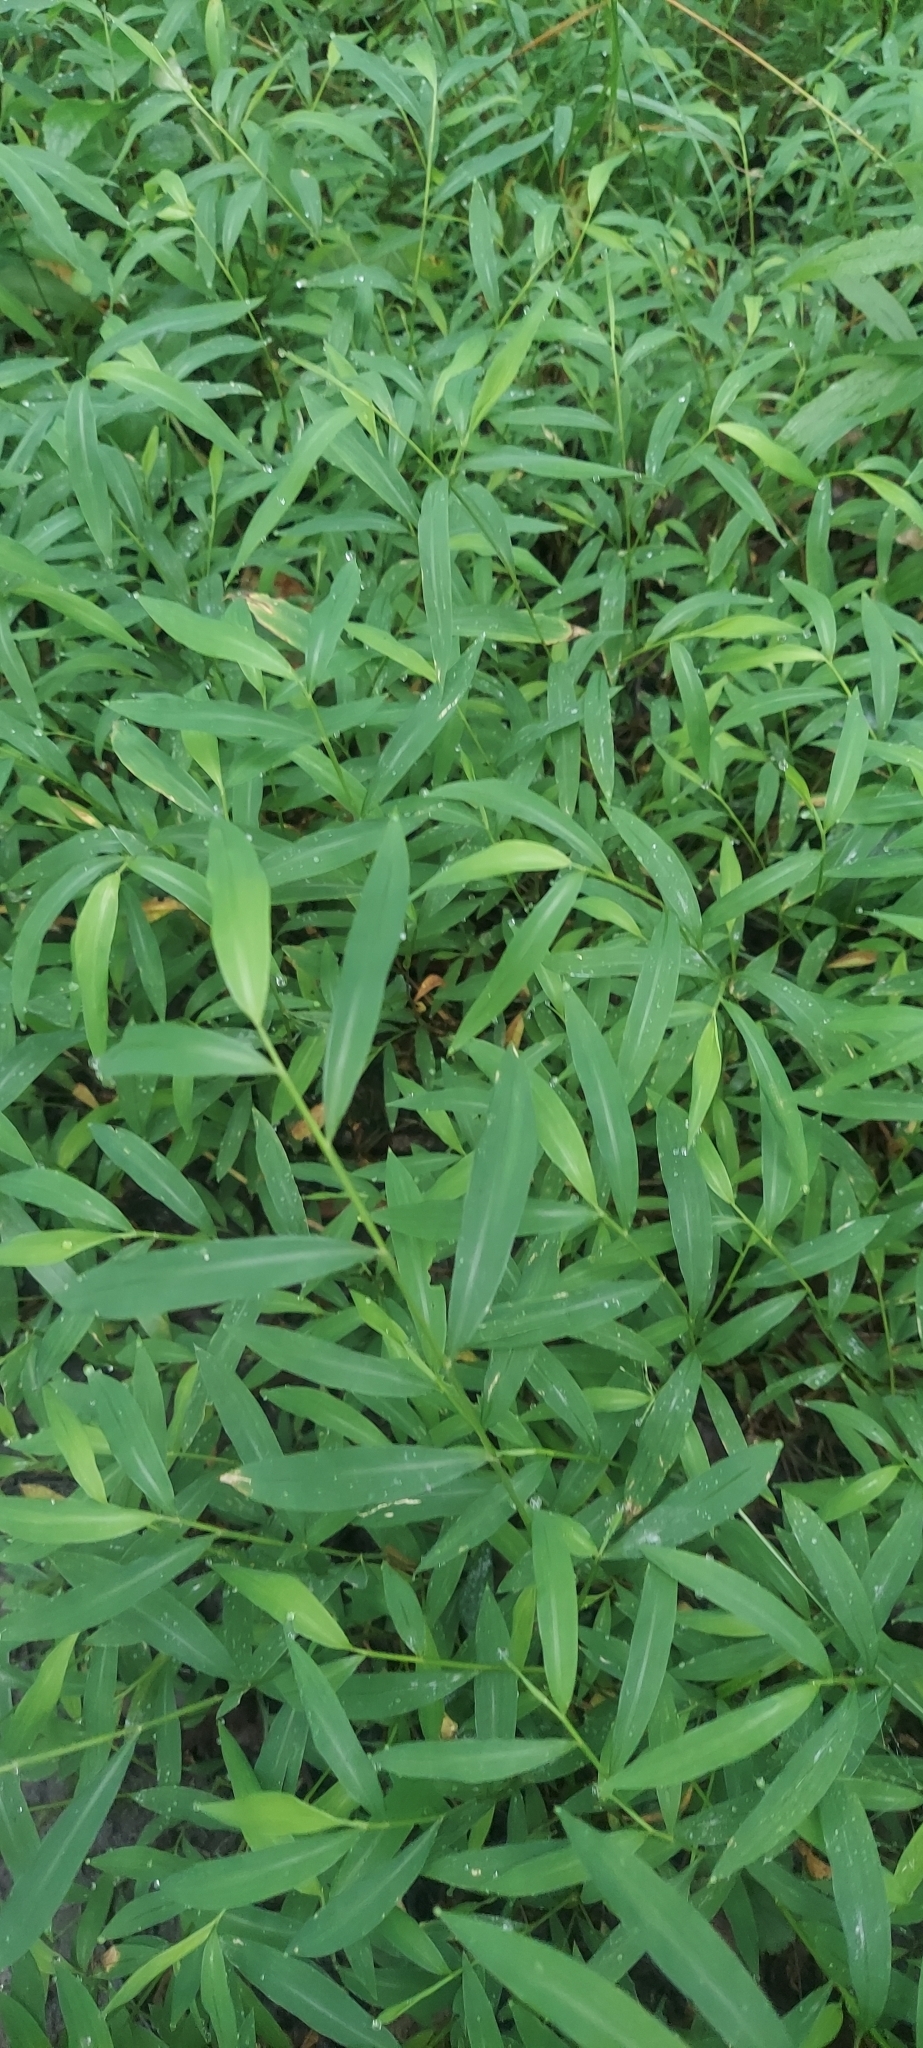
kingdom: Plantae
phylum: Tracheophyta
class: Liliopsida
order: Poales
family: Poaceae
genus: Microstegium
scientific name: Microstegium vimineum
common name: Japanese stiltgrass
